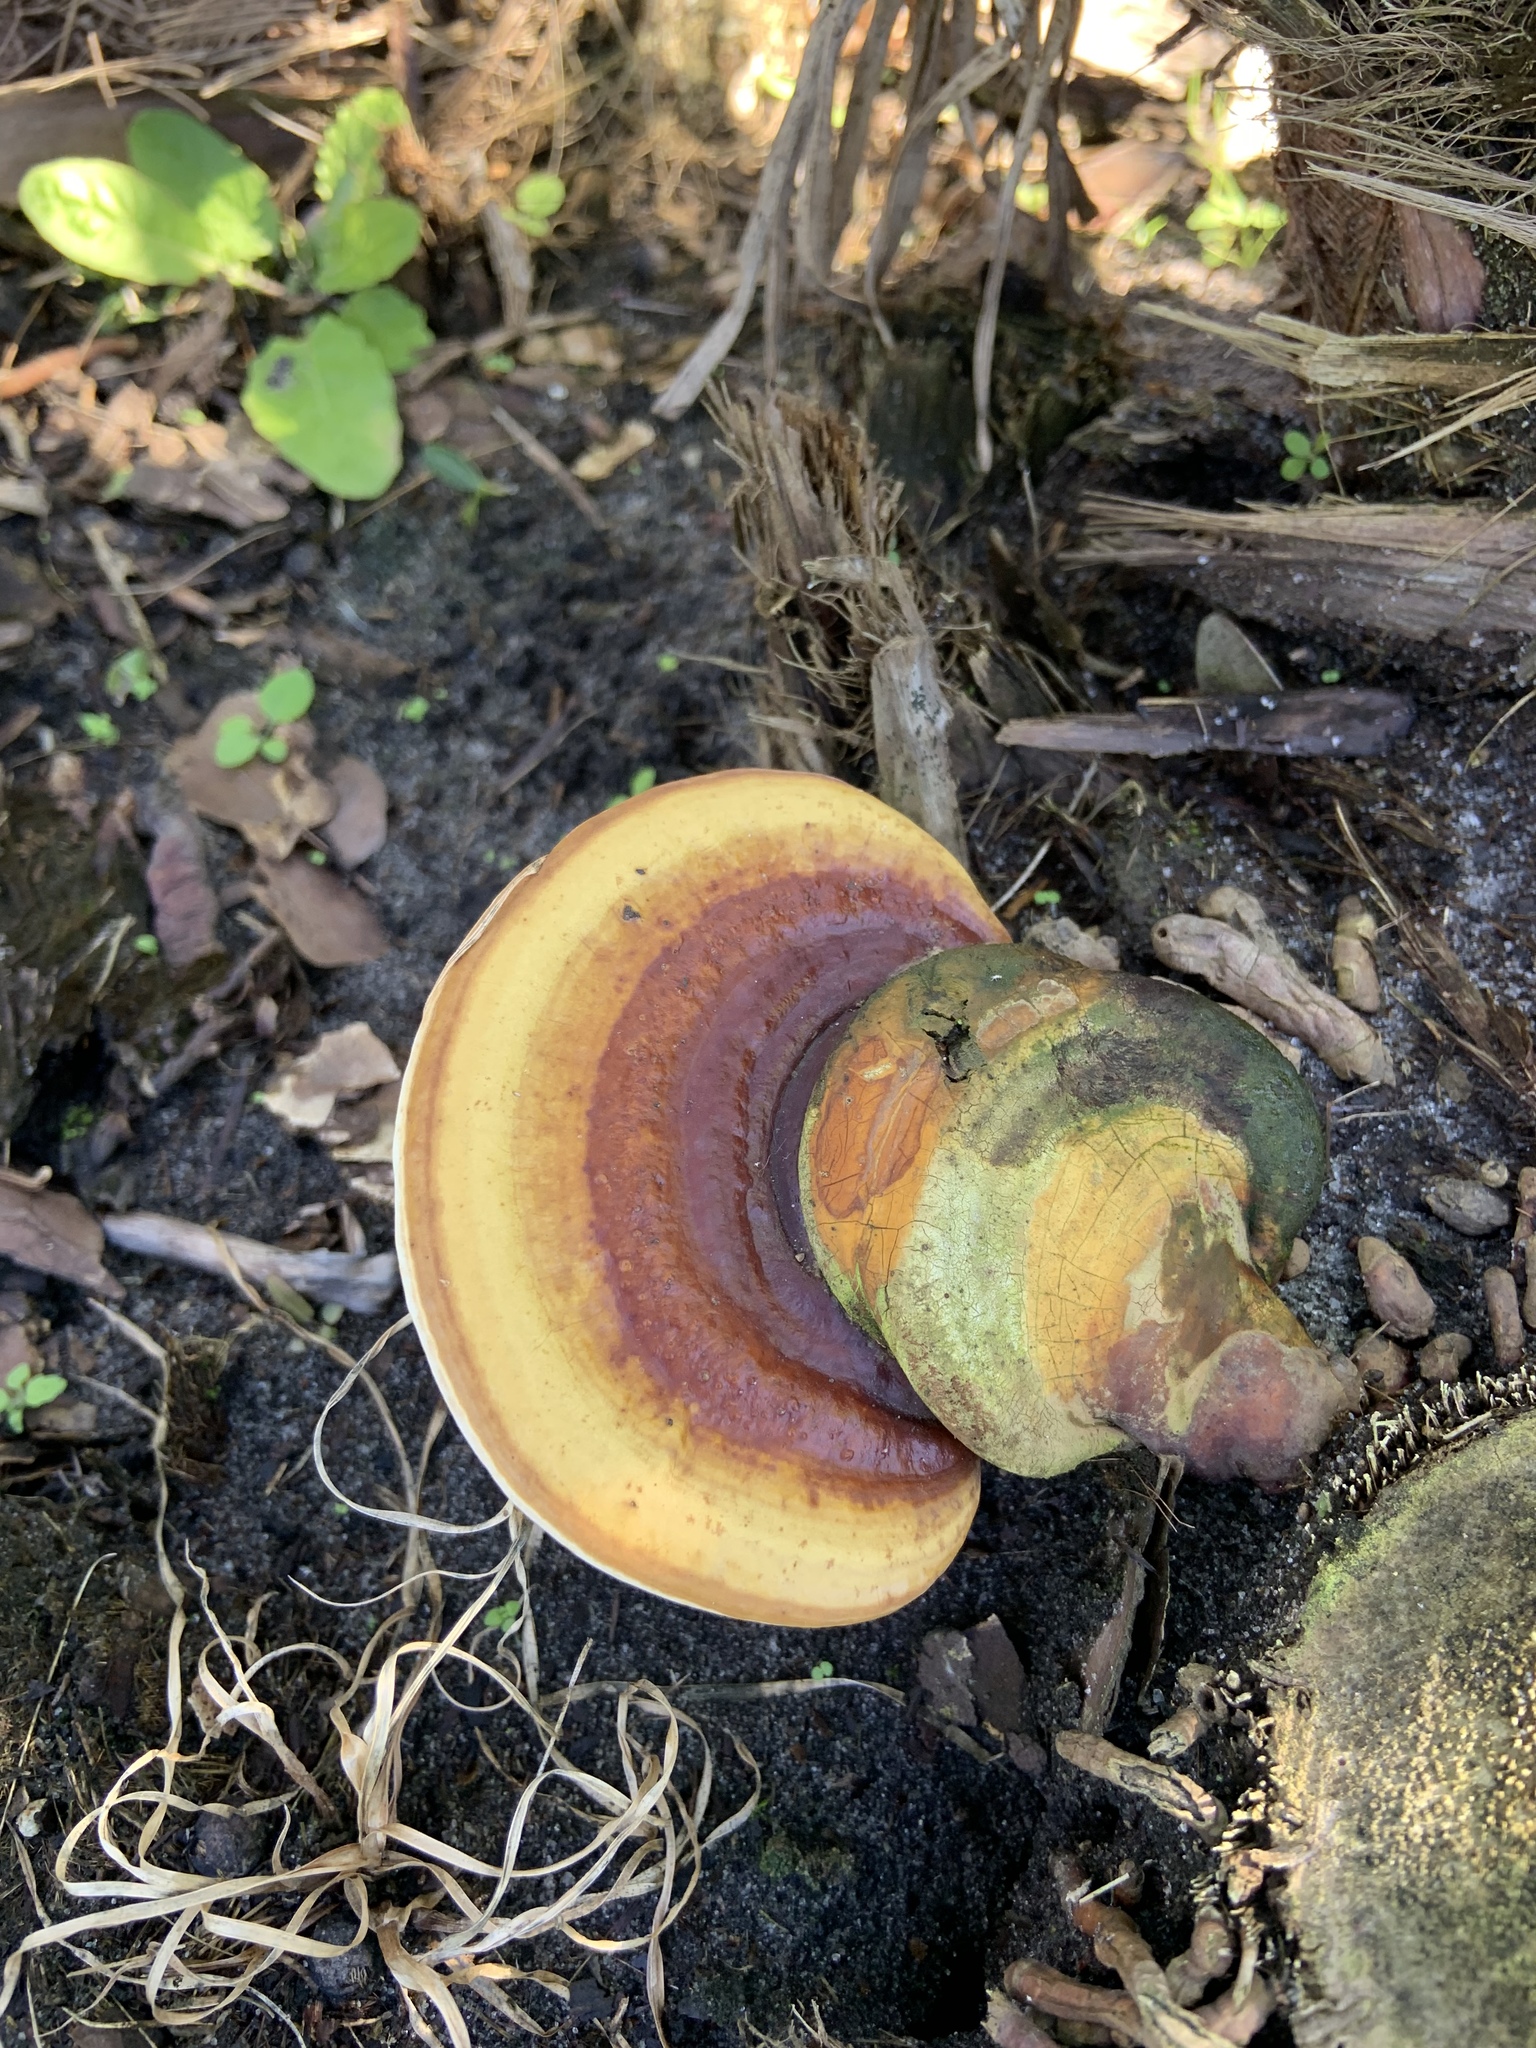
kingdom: Fungi
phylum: Basidiomycota
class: Agaricomycetes
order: Polyporales
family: Polyporaceae
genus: Ganoderma
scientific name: Ganoderma curtisii
